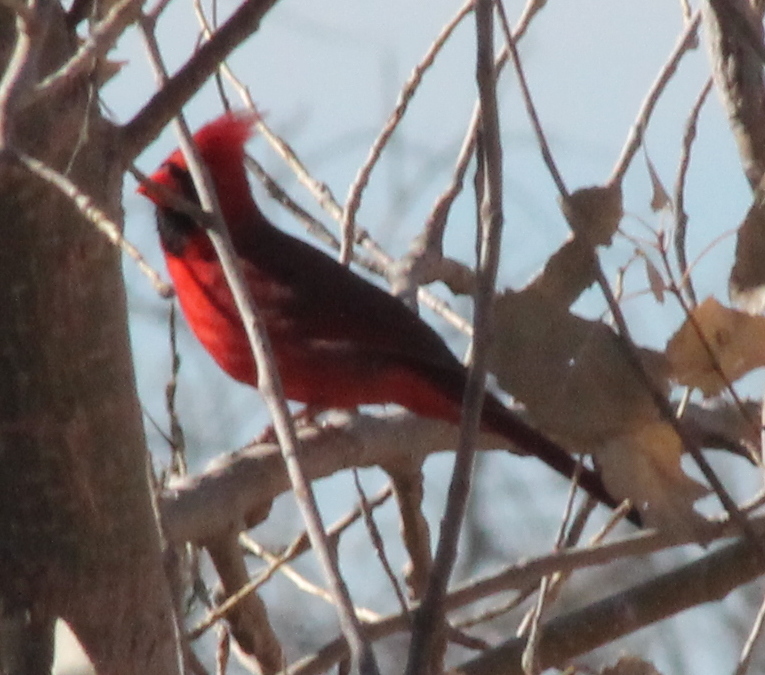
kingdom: Animalia
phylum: Chordata
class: Aves
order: Passeriformes
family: Cardinalidae
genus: Cardinalis
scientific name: Cardinalis cardinalis
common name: Northern cardinal
